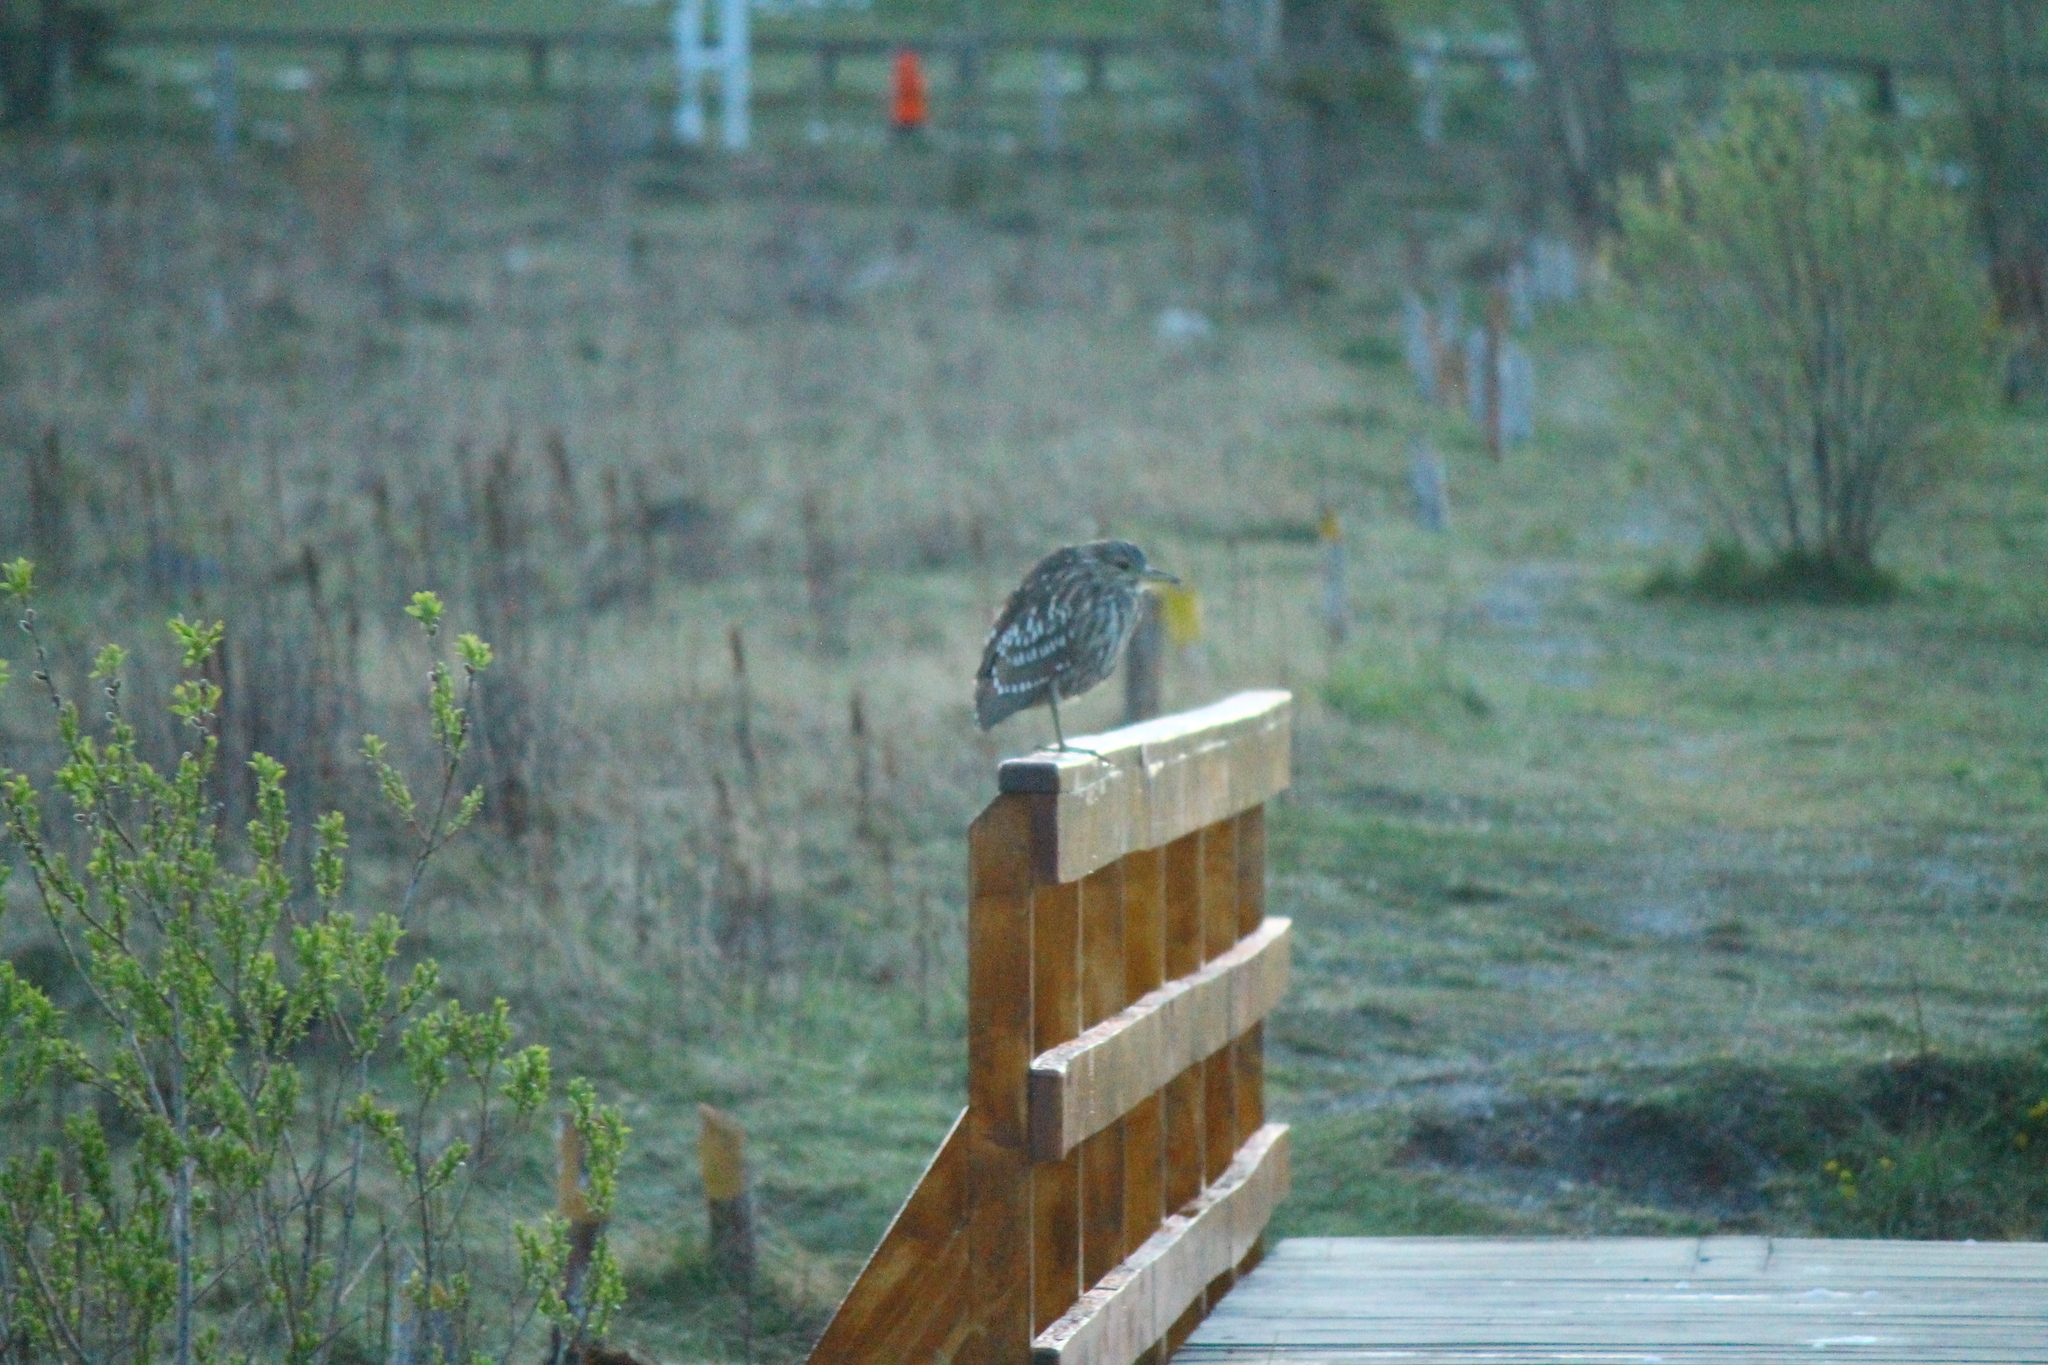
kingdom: Animalia
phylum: Chordata
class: Aves
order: Pelecaniformes
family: Ardeidae
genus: Nycticorax
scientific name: Nycticorax nycticorax
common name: Black-crowned night heron
